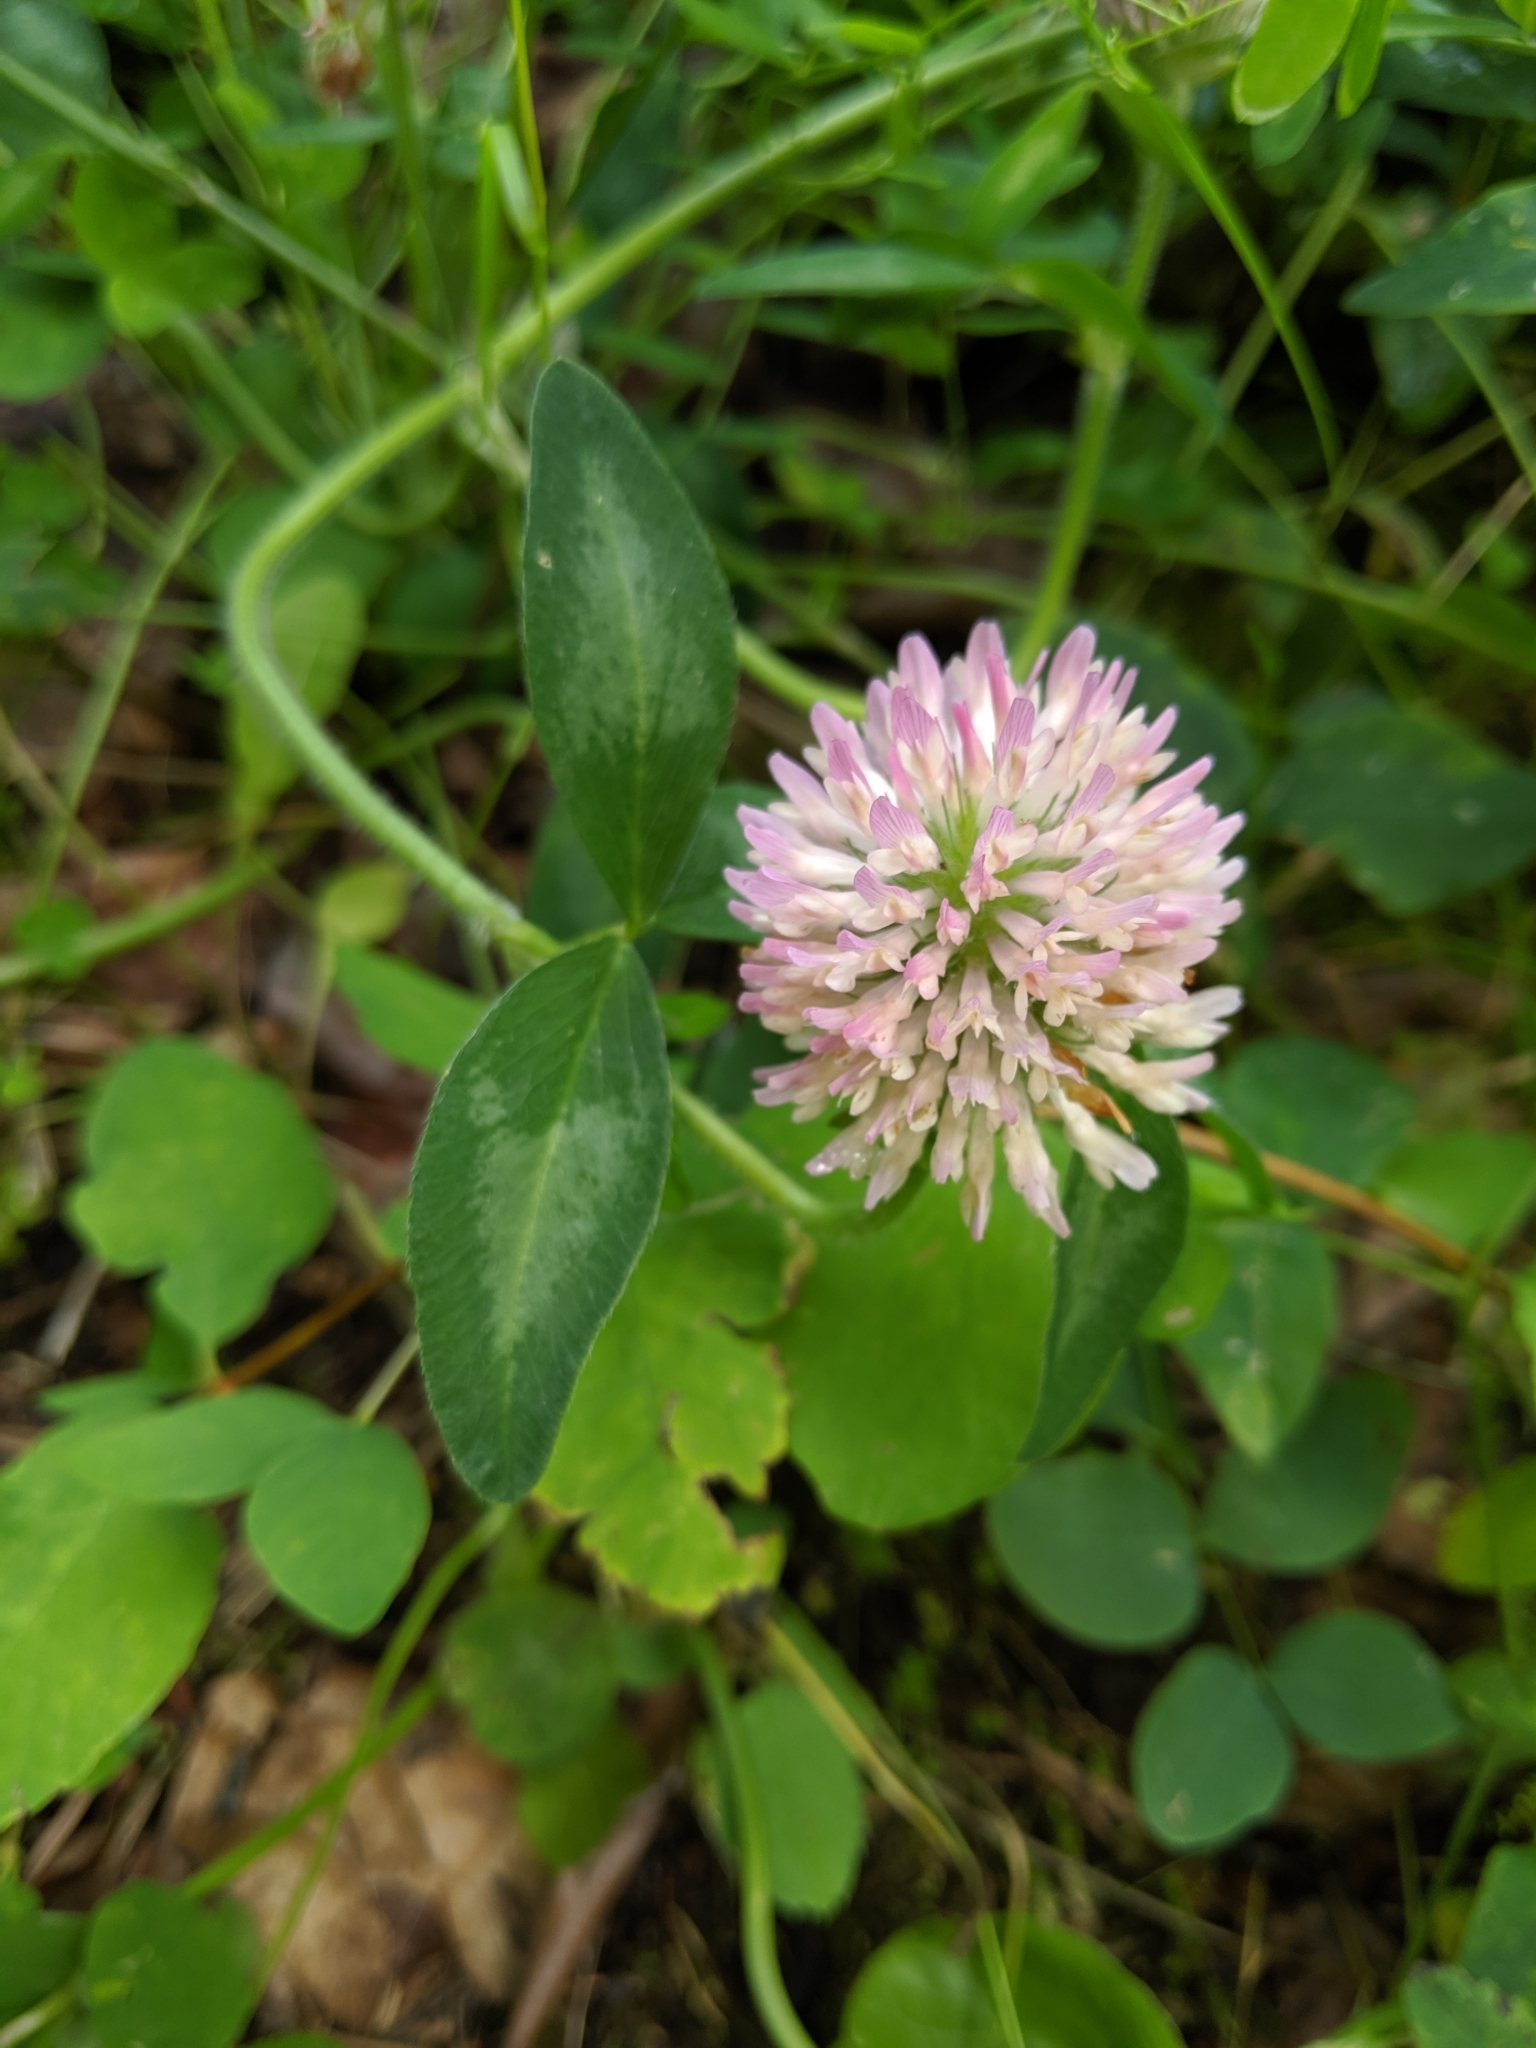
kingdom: Plantae
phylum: Tracheophyta
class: Magnoliopsida
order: Fabales
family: Fabaceae
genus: Trifolium
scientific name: Trifolium pratense
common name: Red clover
